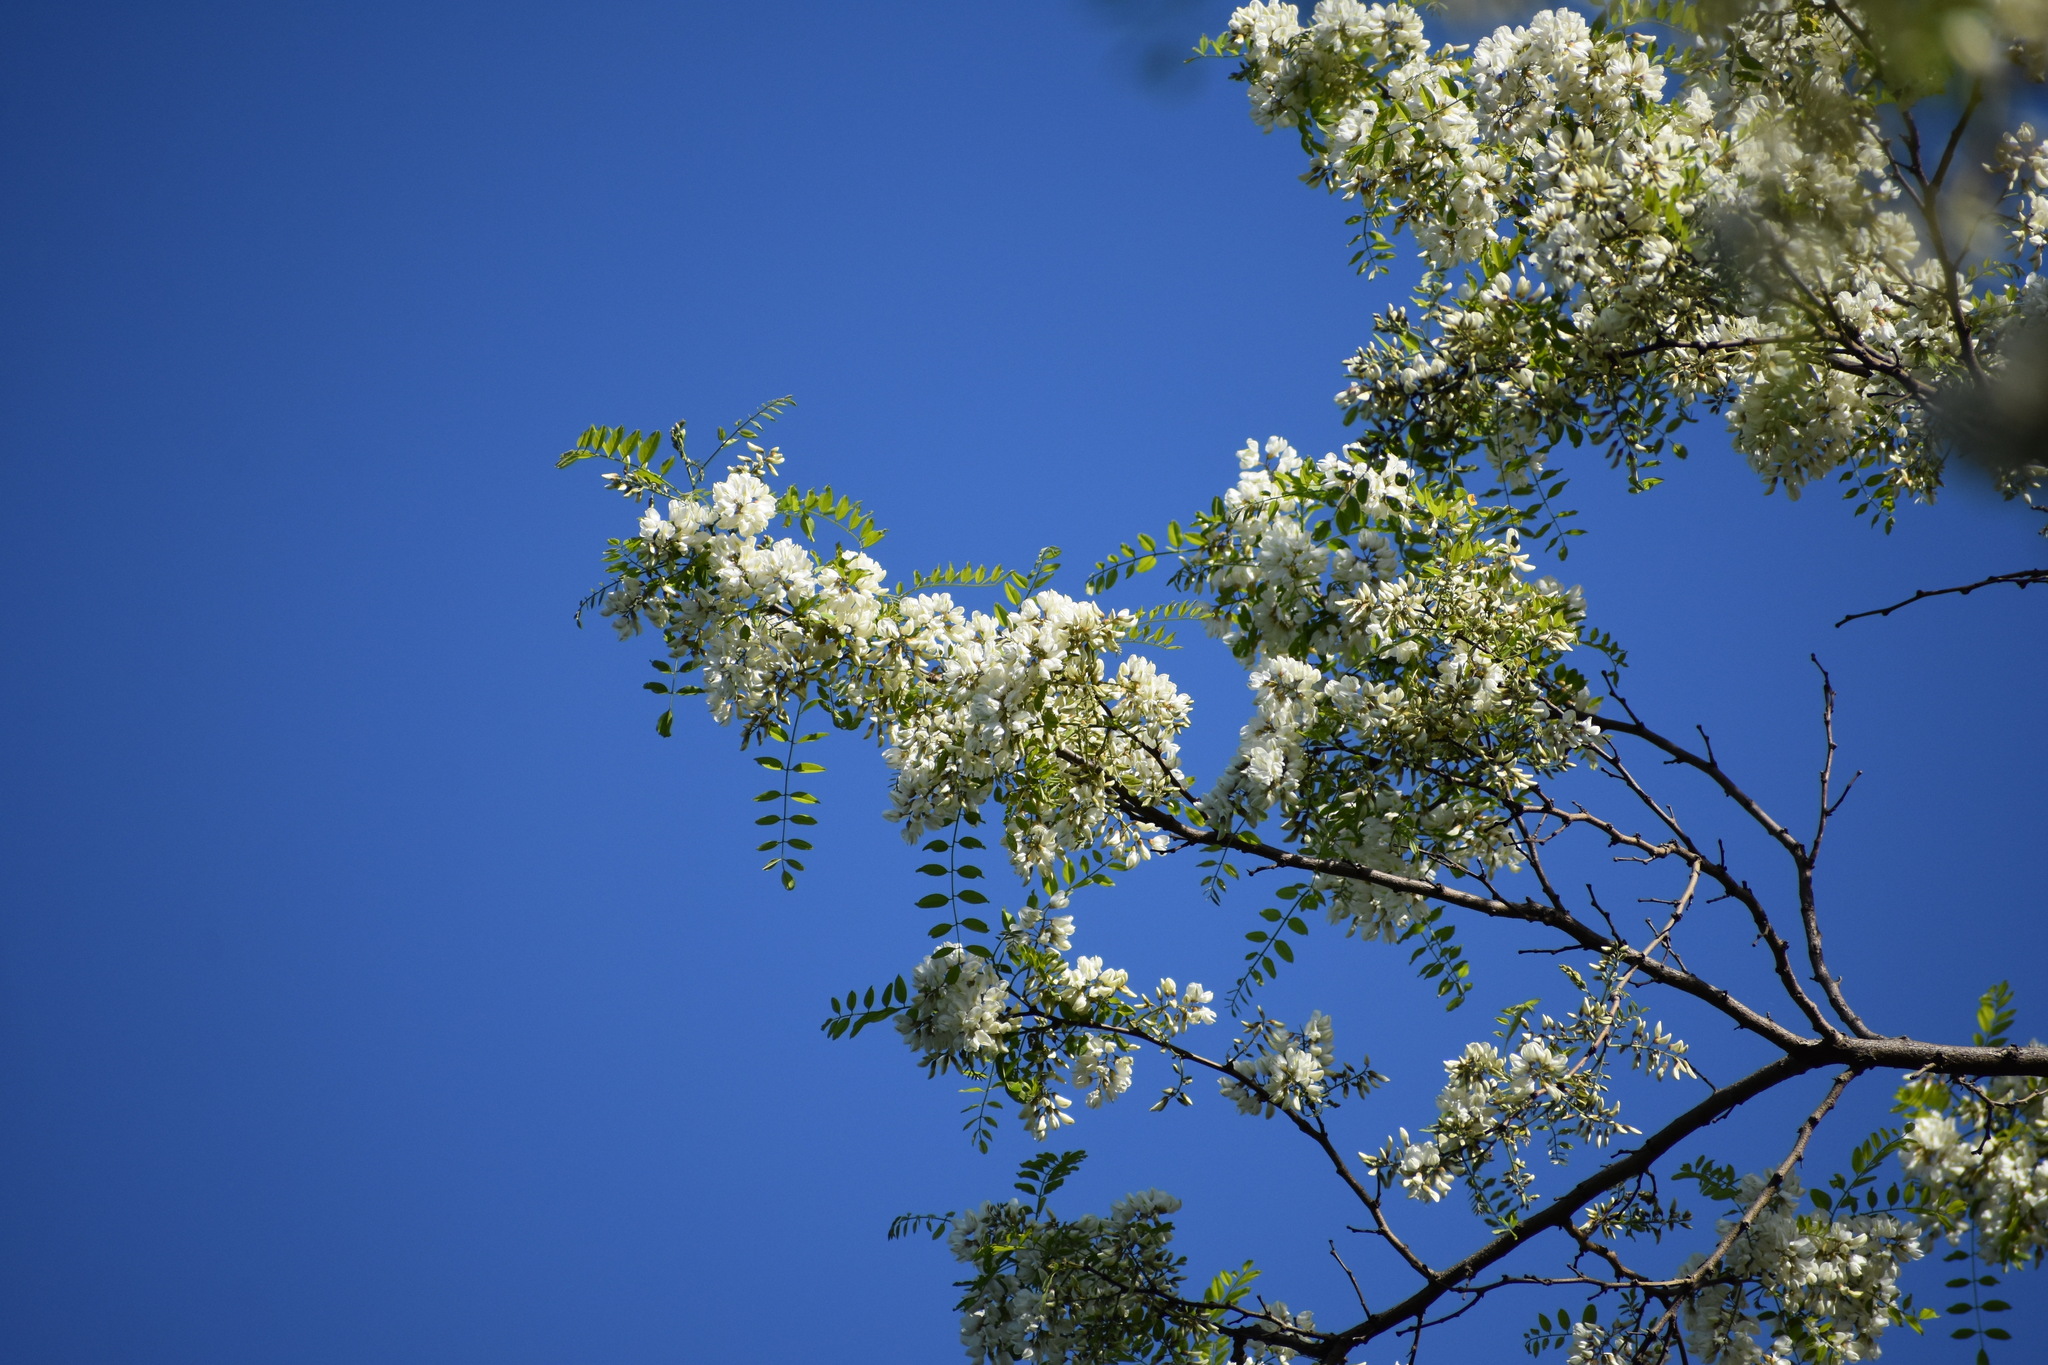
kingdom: Plantae
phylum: Tracheophyta
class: Magnoliopsida
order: Fabales
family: Fabaceae
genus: Robinia
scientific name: Robinia pseudoacacia
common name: Black locust
